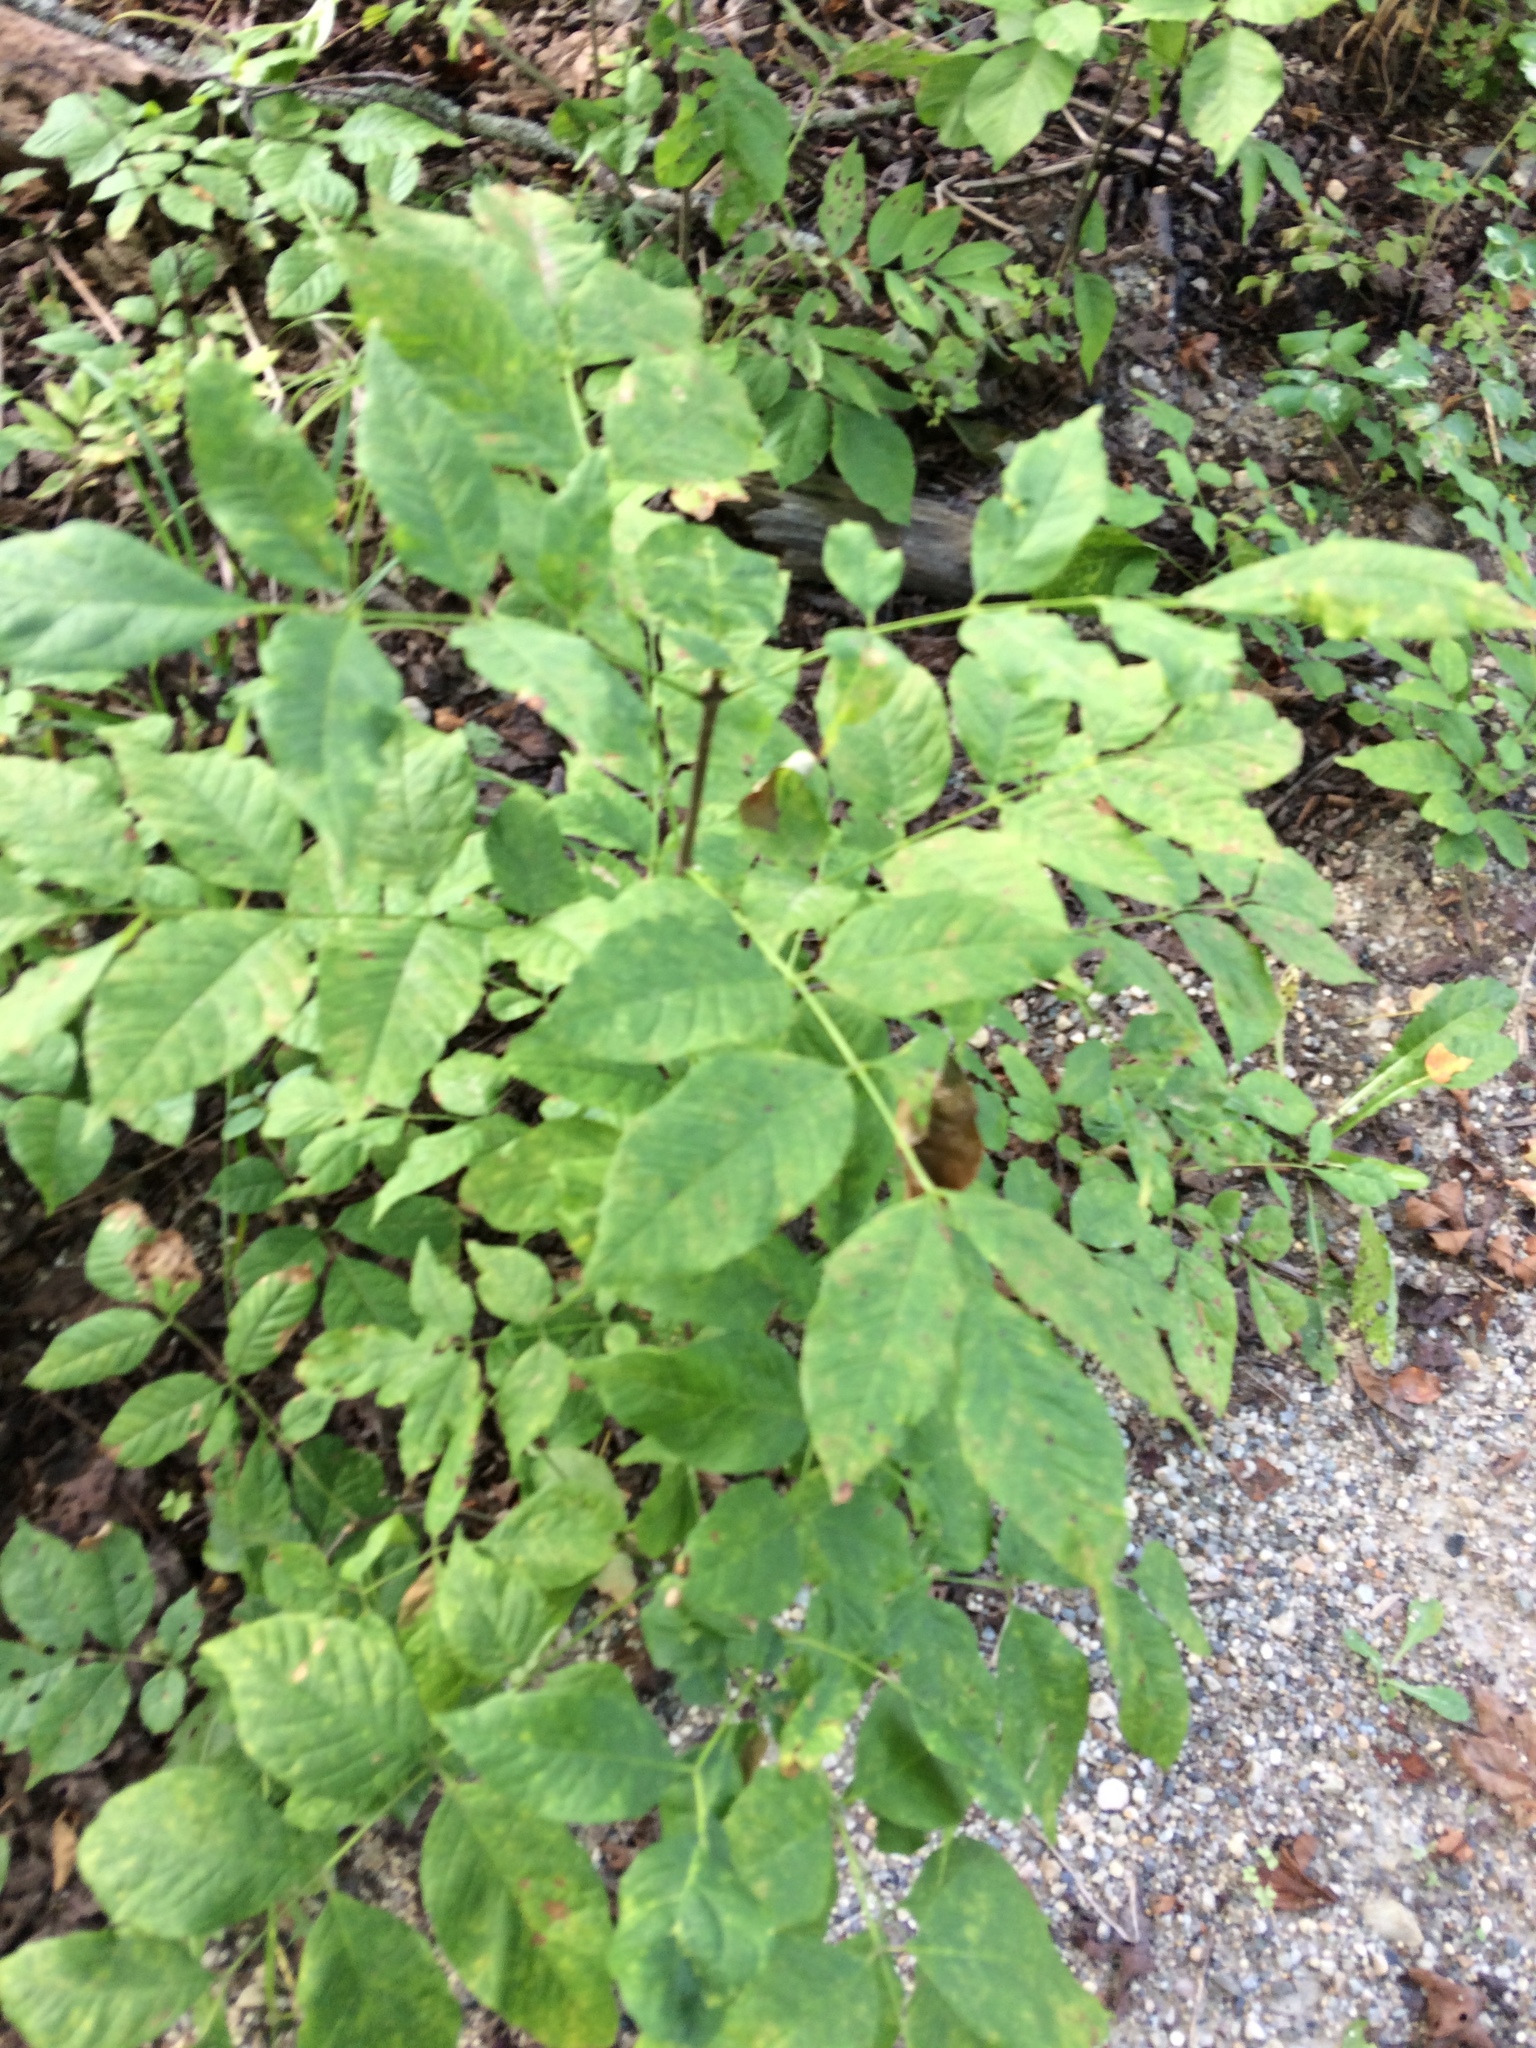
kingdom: Plantae
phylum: Tracheophyta
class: Magnoliopsida
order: Lamiales
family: Oleaceae
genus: Fraxinus
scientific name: Fraxinus americana
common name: White ash
